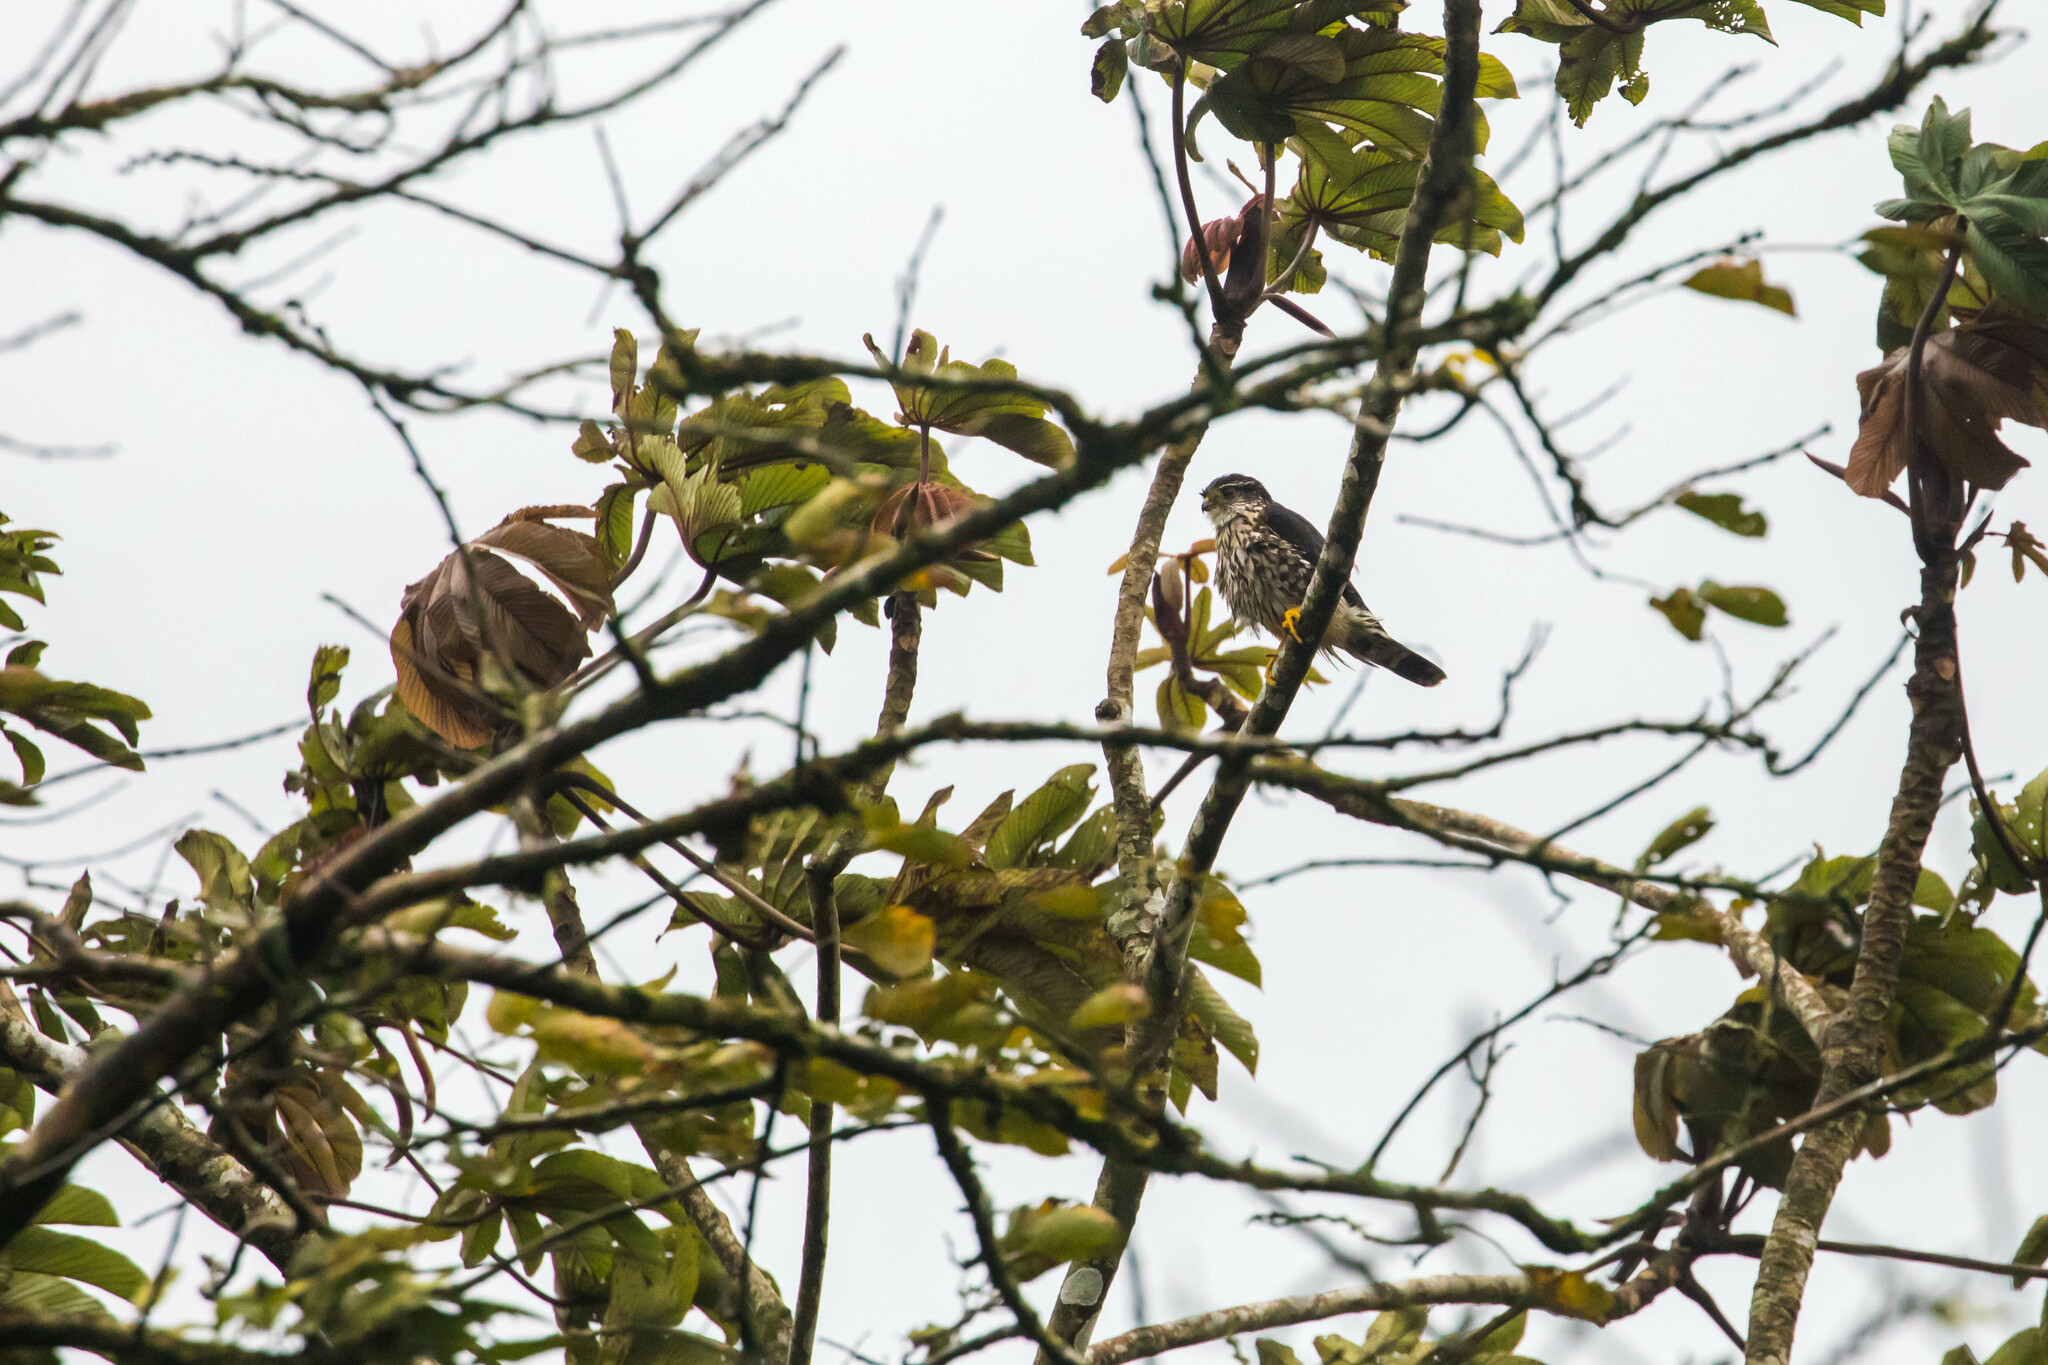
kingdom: Animalia
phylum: Chordata
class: Aves
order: Falconiformes
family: Falconidae
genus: Falco
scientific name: Falco columbarius
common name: Merlin
